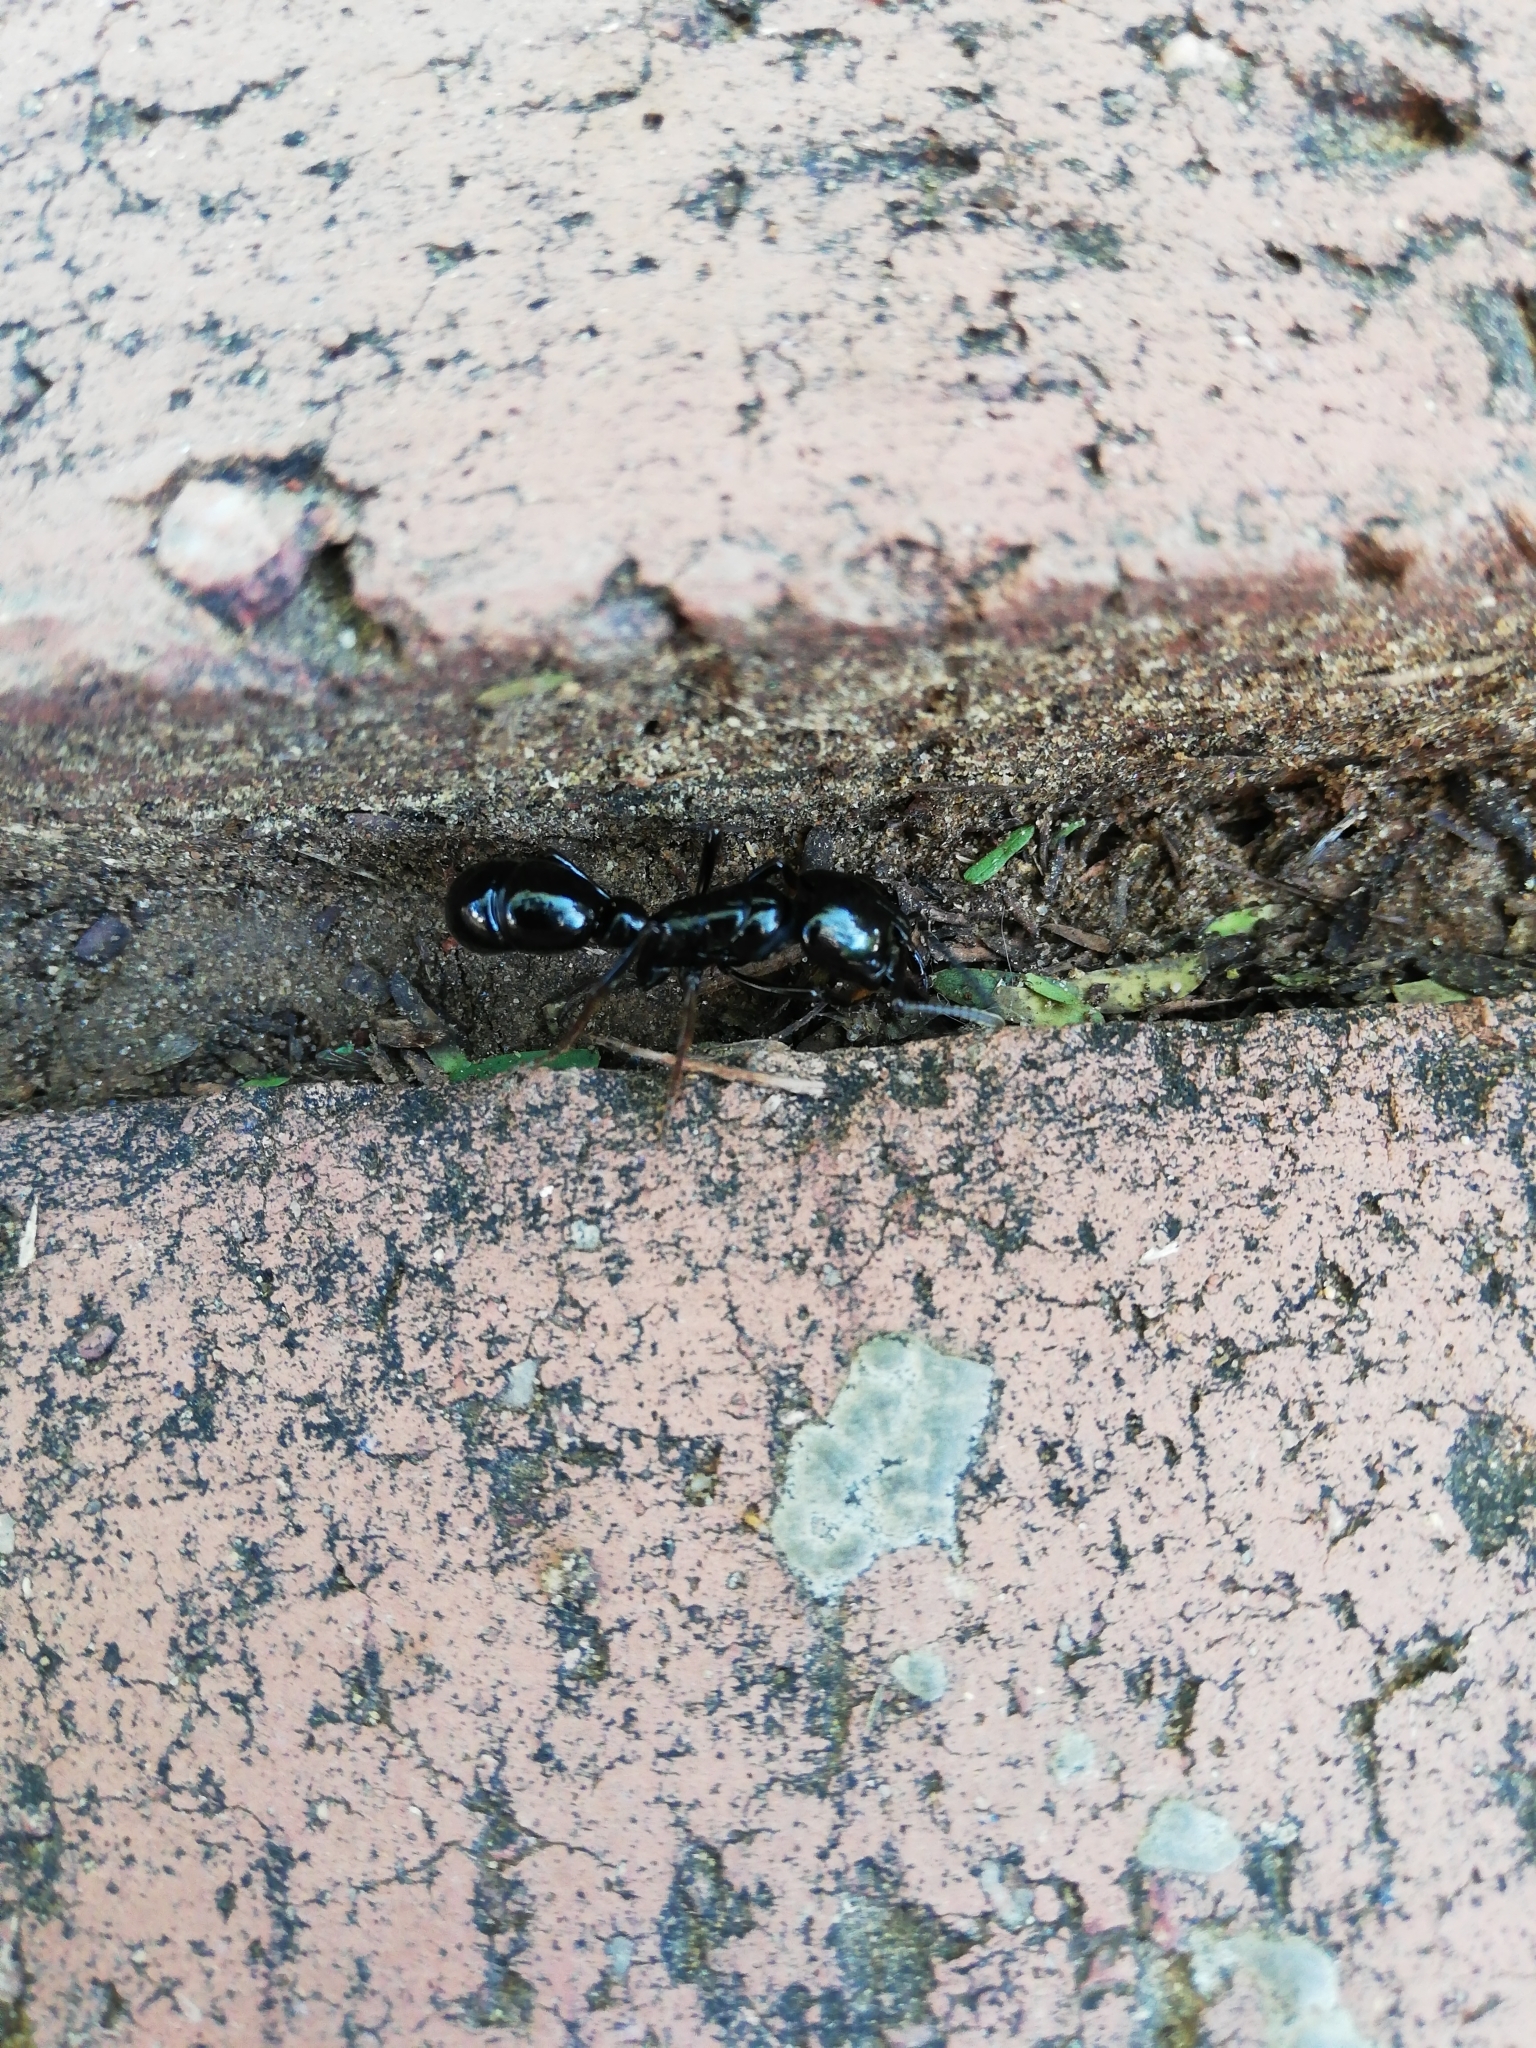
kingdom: Animalia
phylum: Arthropoda
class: Insecta
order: Hymenoptera
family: Formicidae
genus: Plectroctena
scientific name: Plectroctena mandibularis
